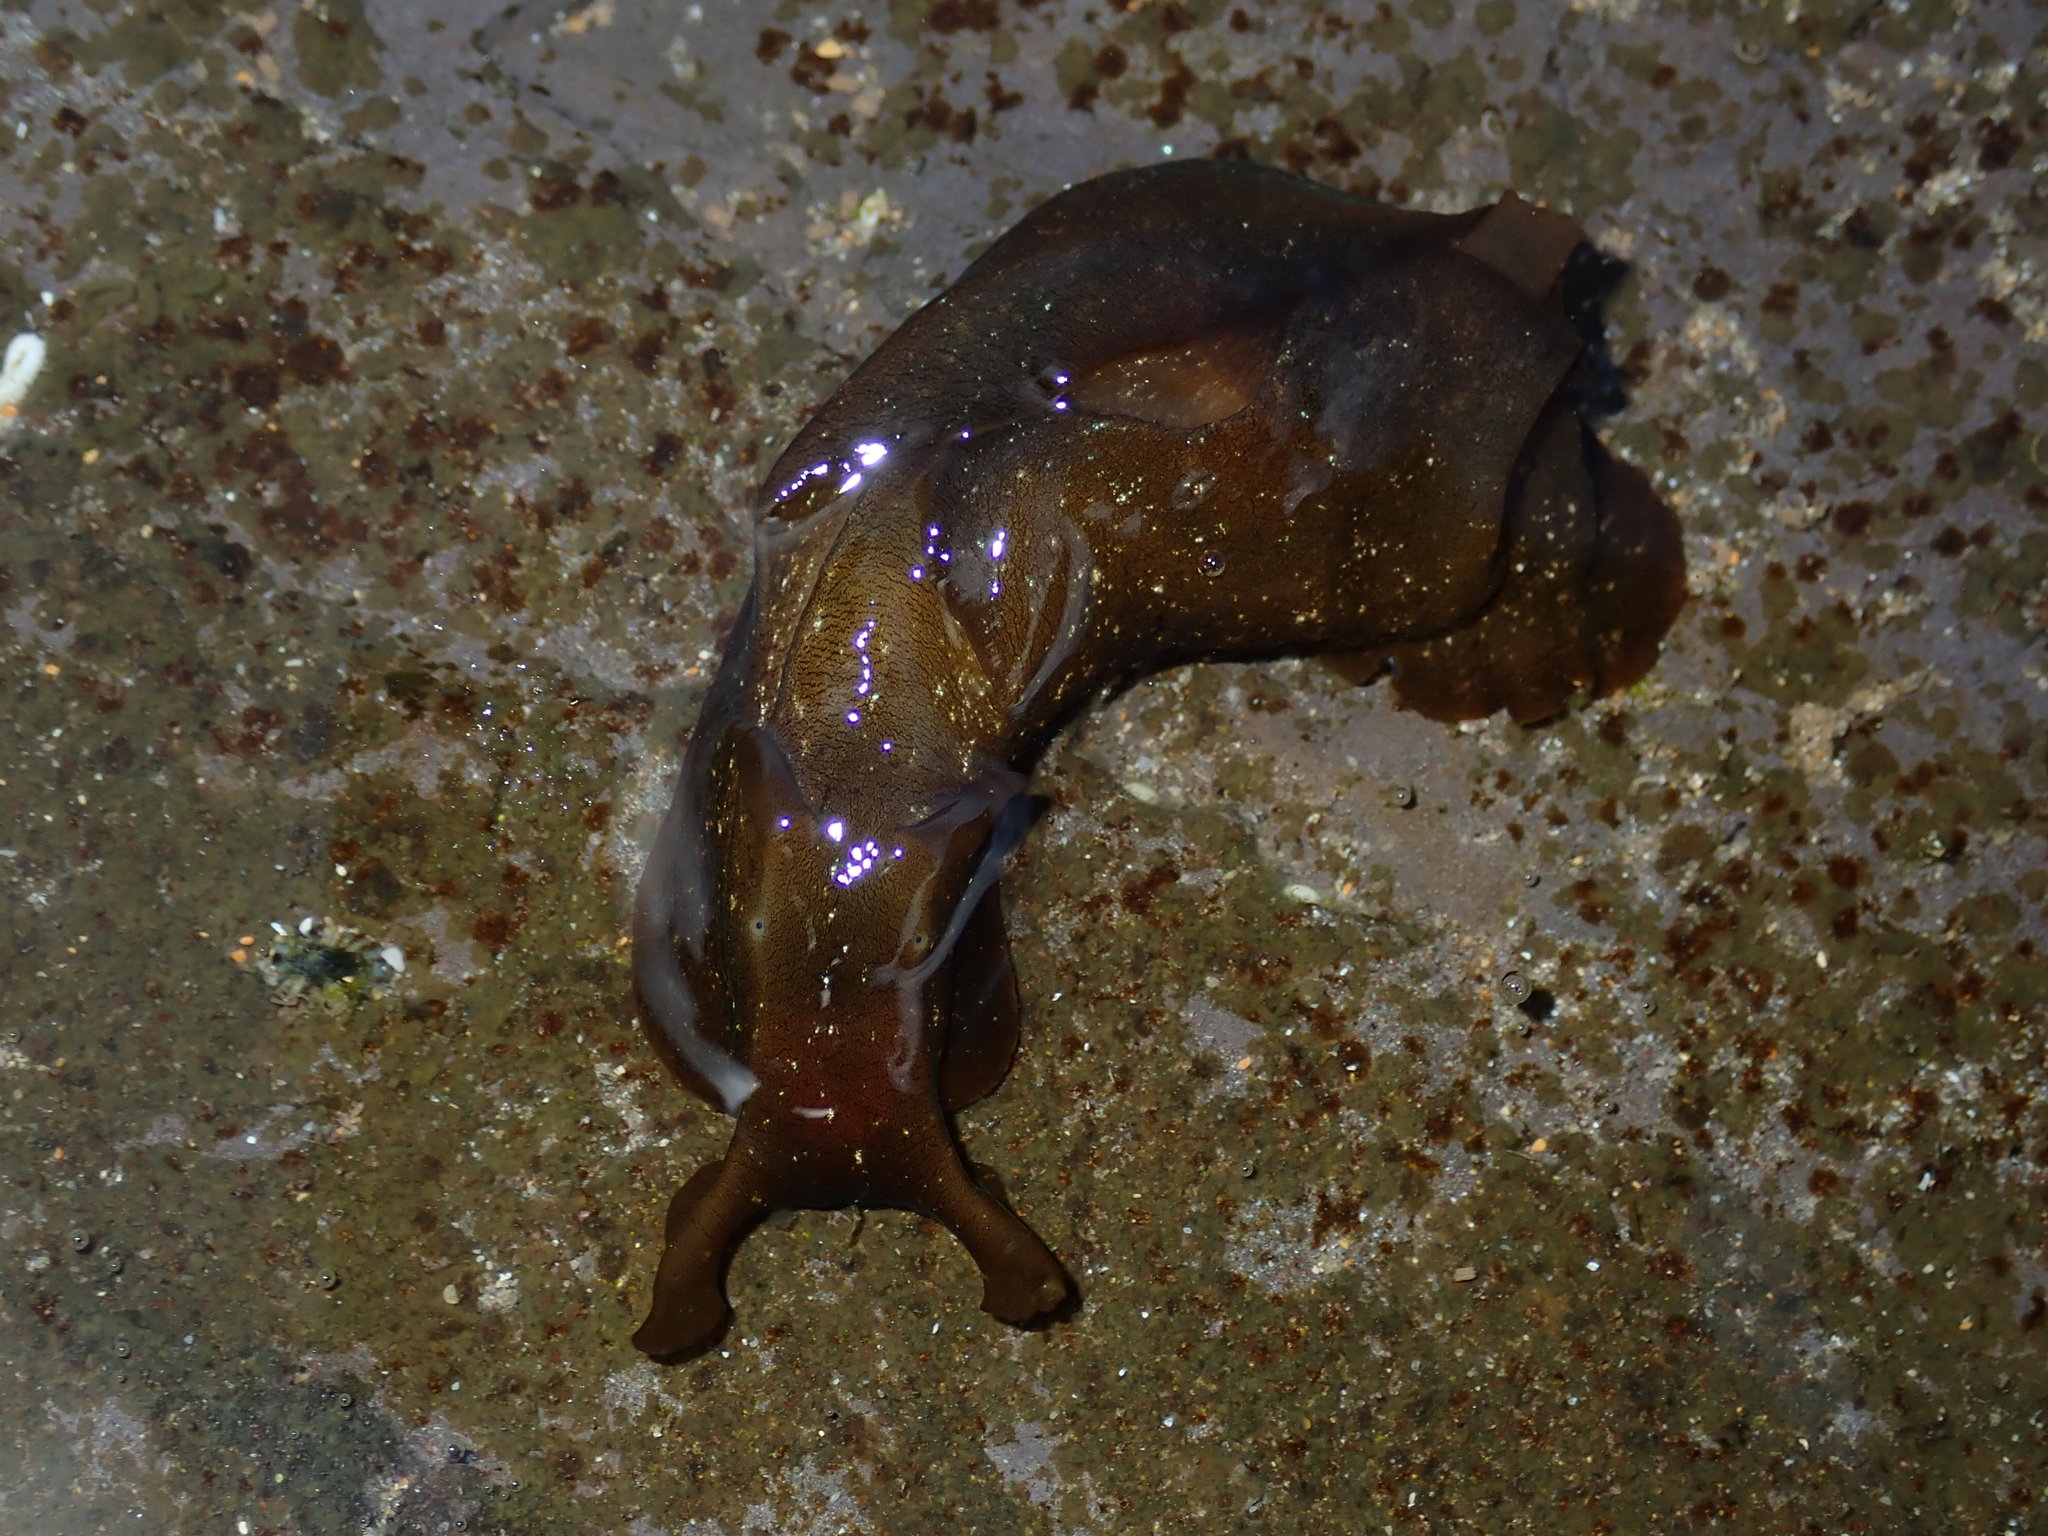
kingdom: Animalia
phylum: Mollusca
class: Gastropoda
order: Aplysiida
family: Aplysiidae
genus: Aplysia
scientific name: Aplysia juliana
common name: Walking sea hare
